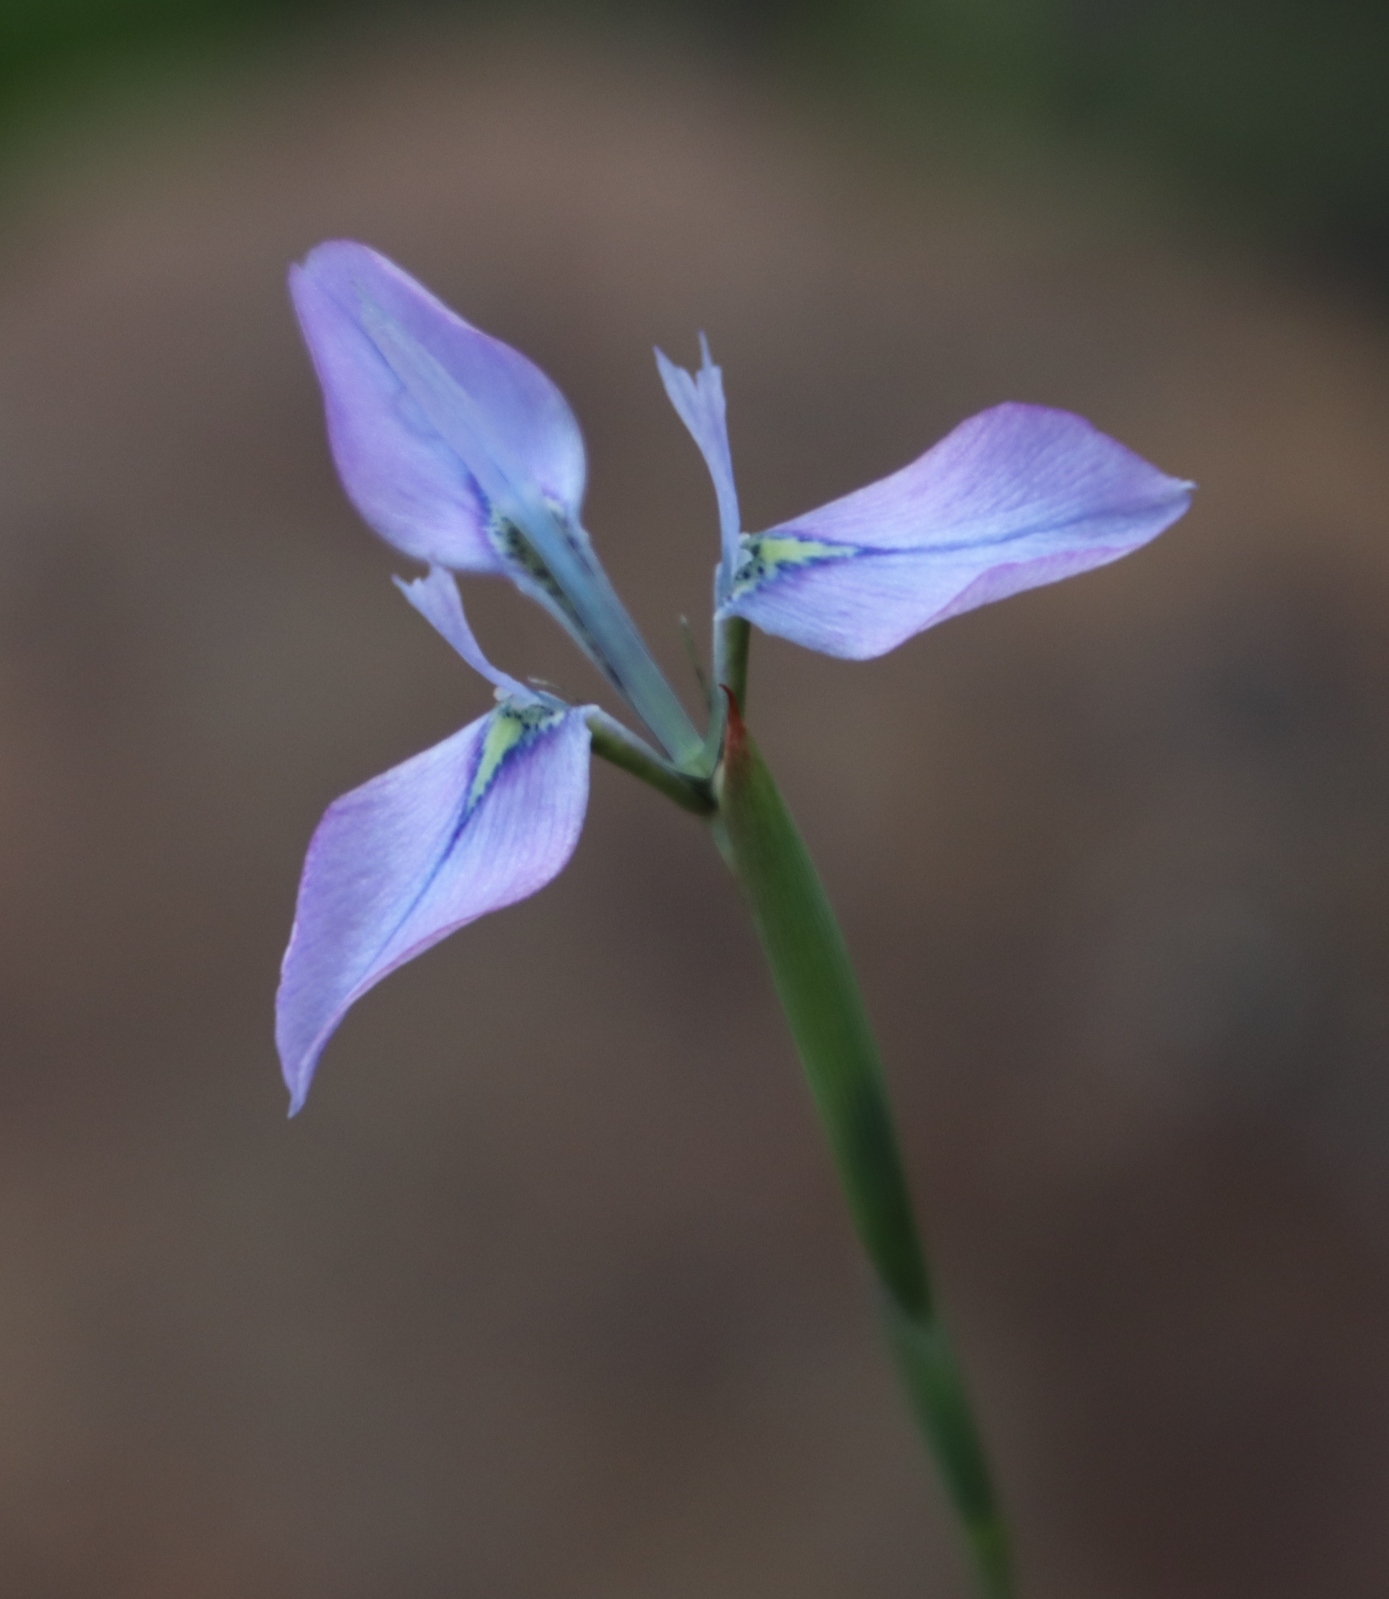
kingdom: Plantae
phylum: Tracheophyta
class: Liliopsida
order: Asparagales
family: Iridaceae
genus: Moraea
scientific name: Moraea tripetala
